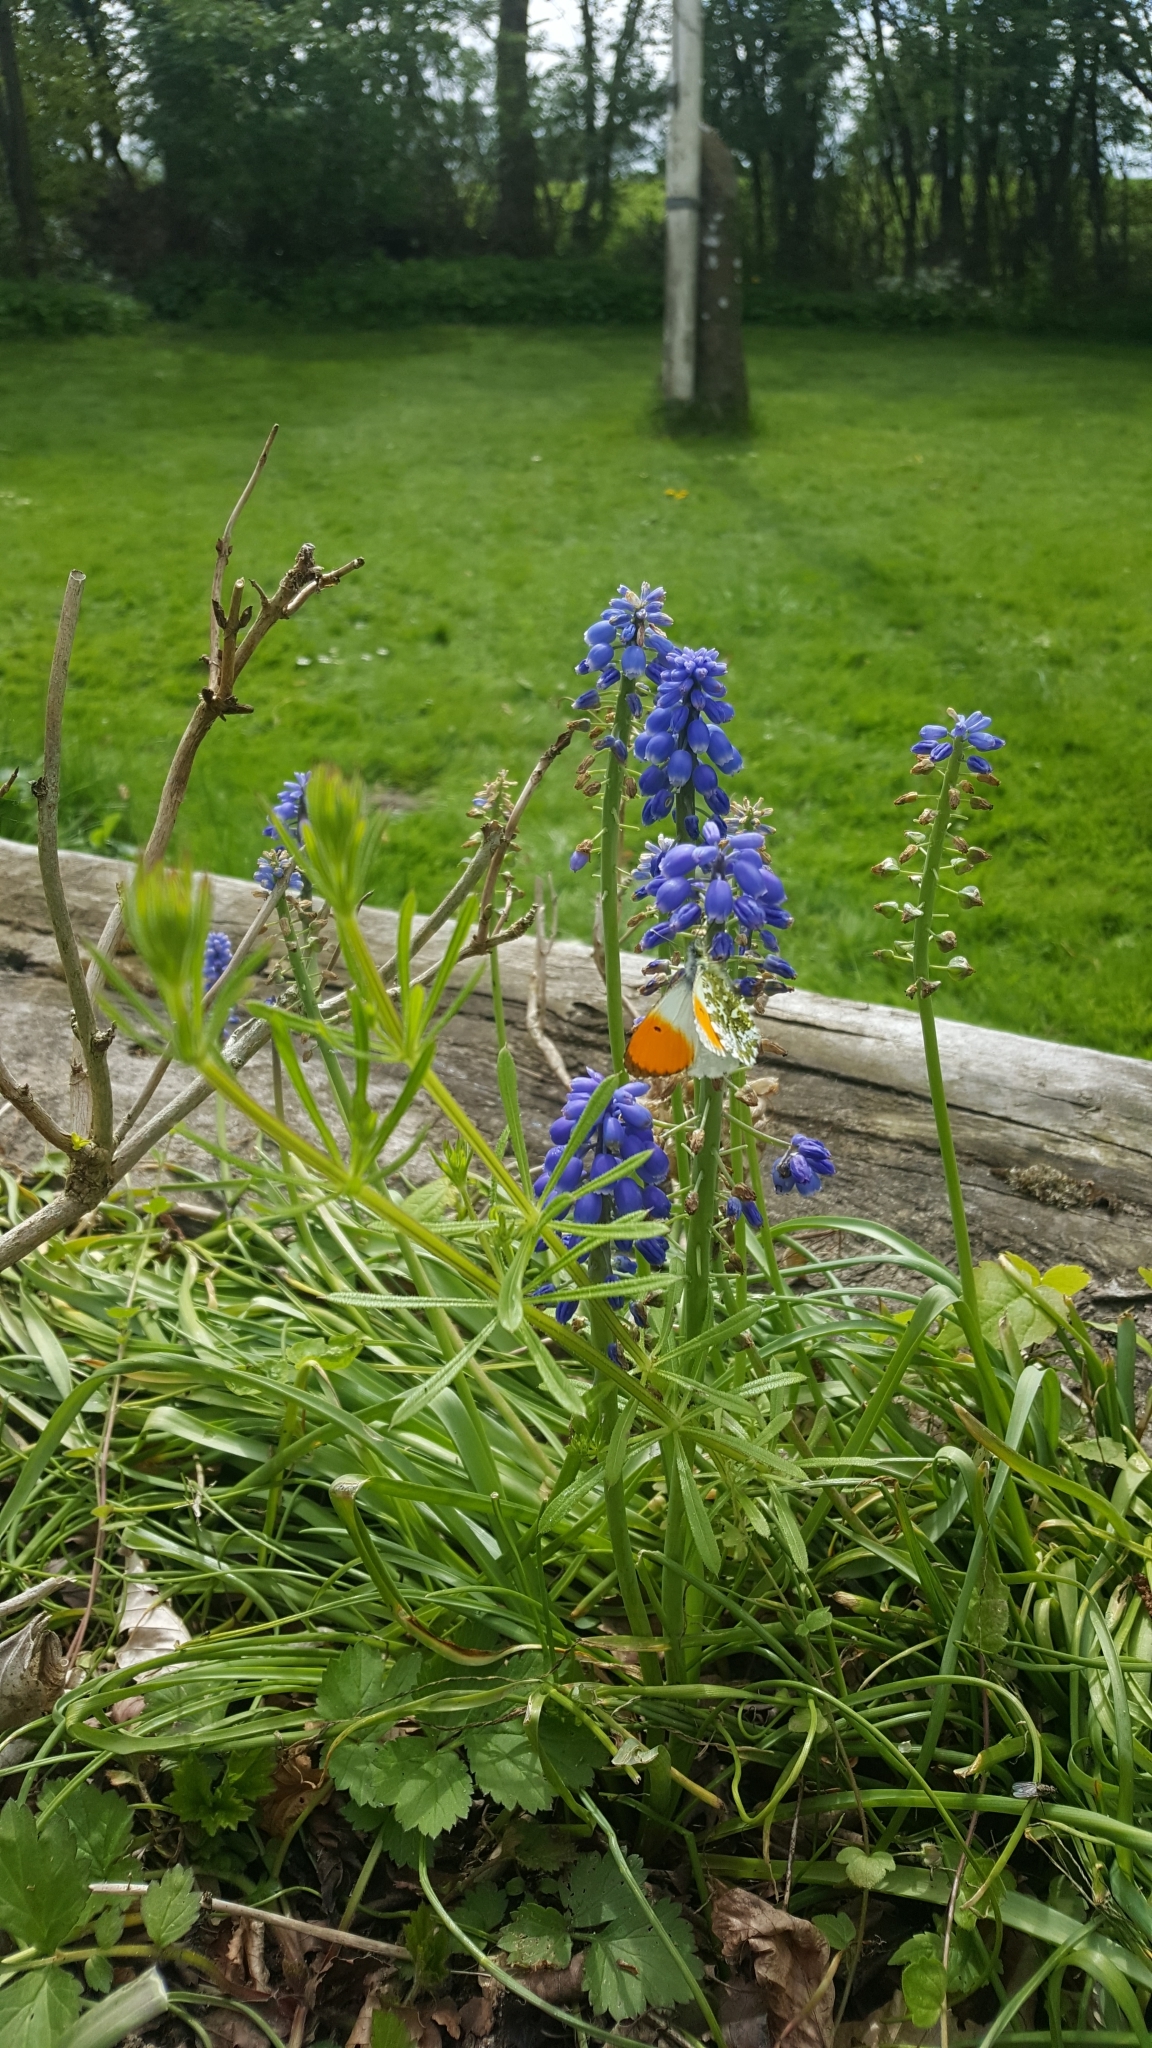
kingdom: Animalia
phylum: Arthropoda
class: Insecta
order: Lepidoptera
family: Pieridae
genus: Anthocharis
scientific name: Anthocharis cardamines
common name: Orange-tip
